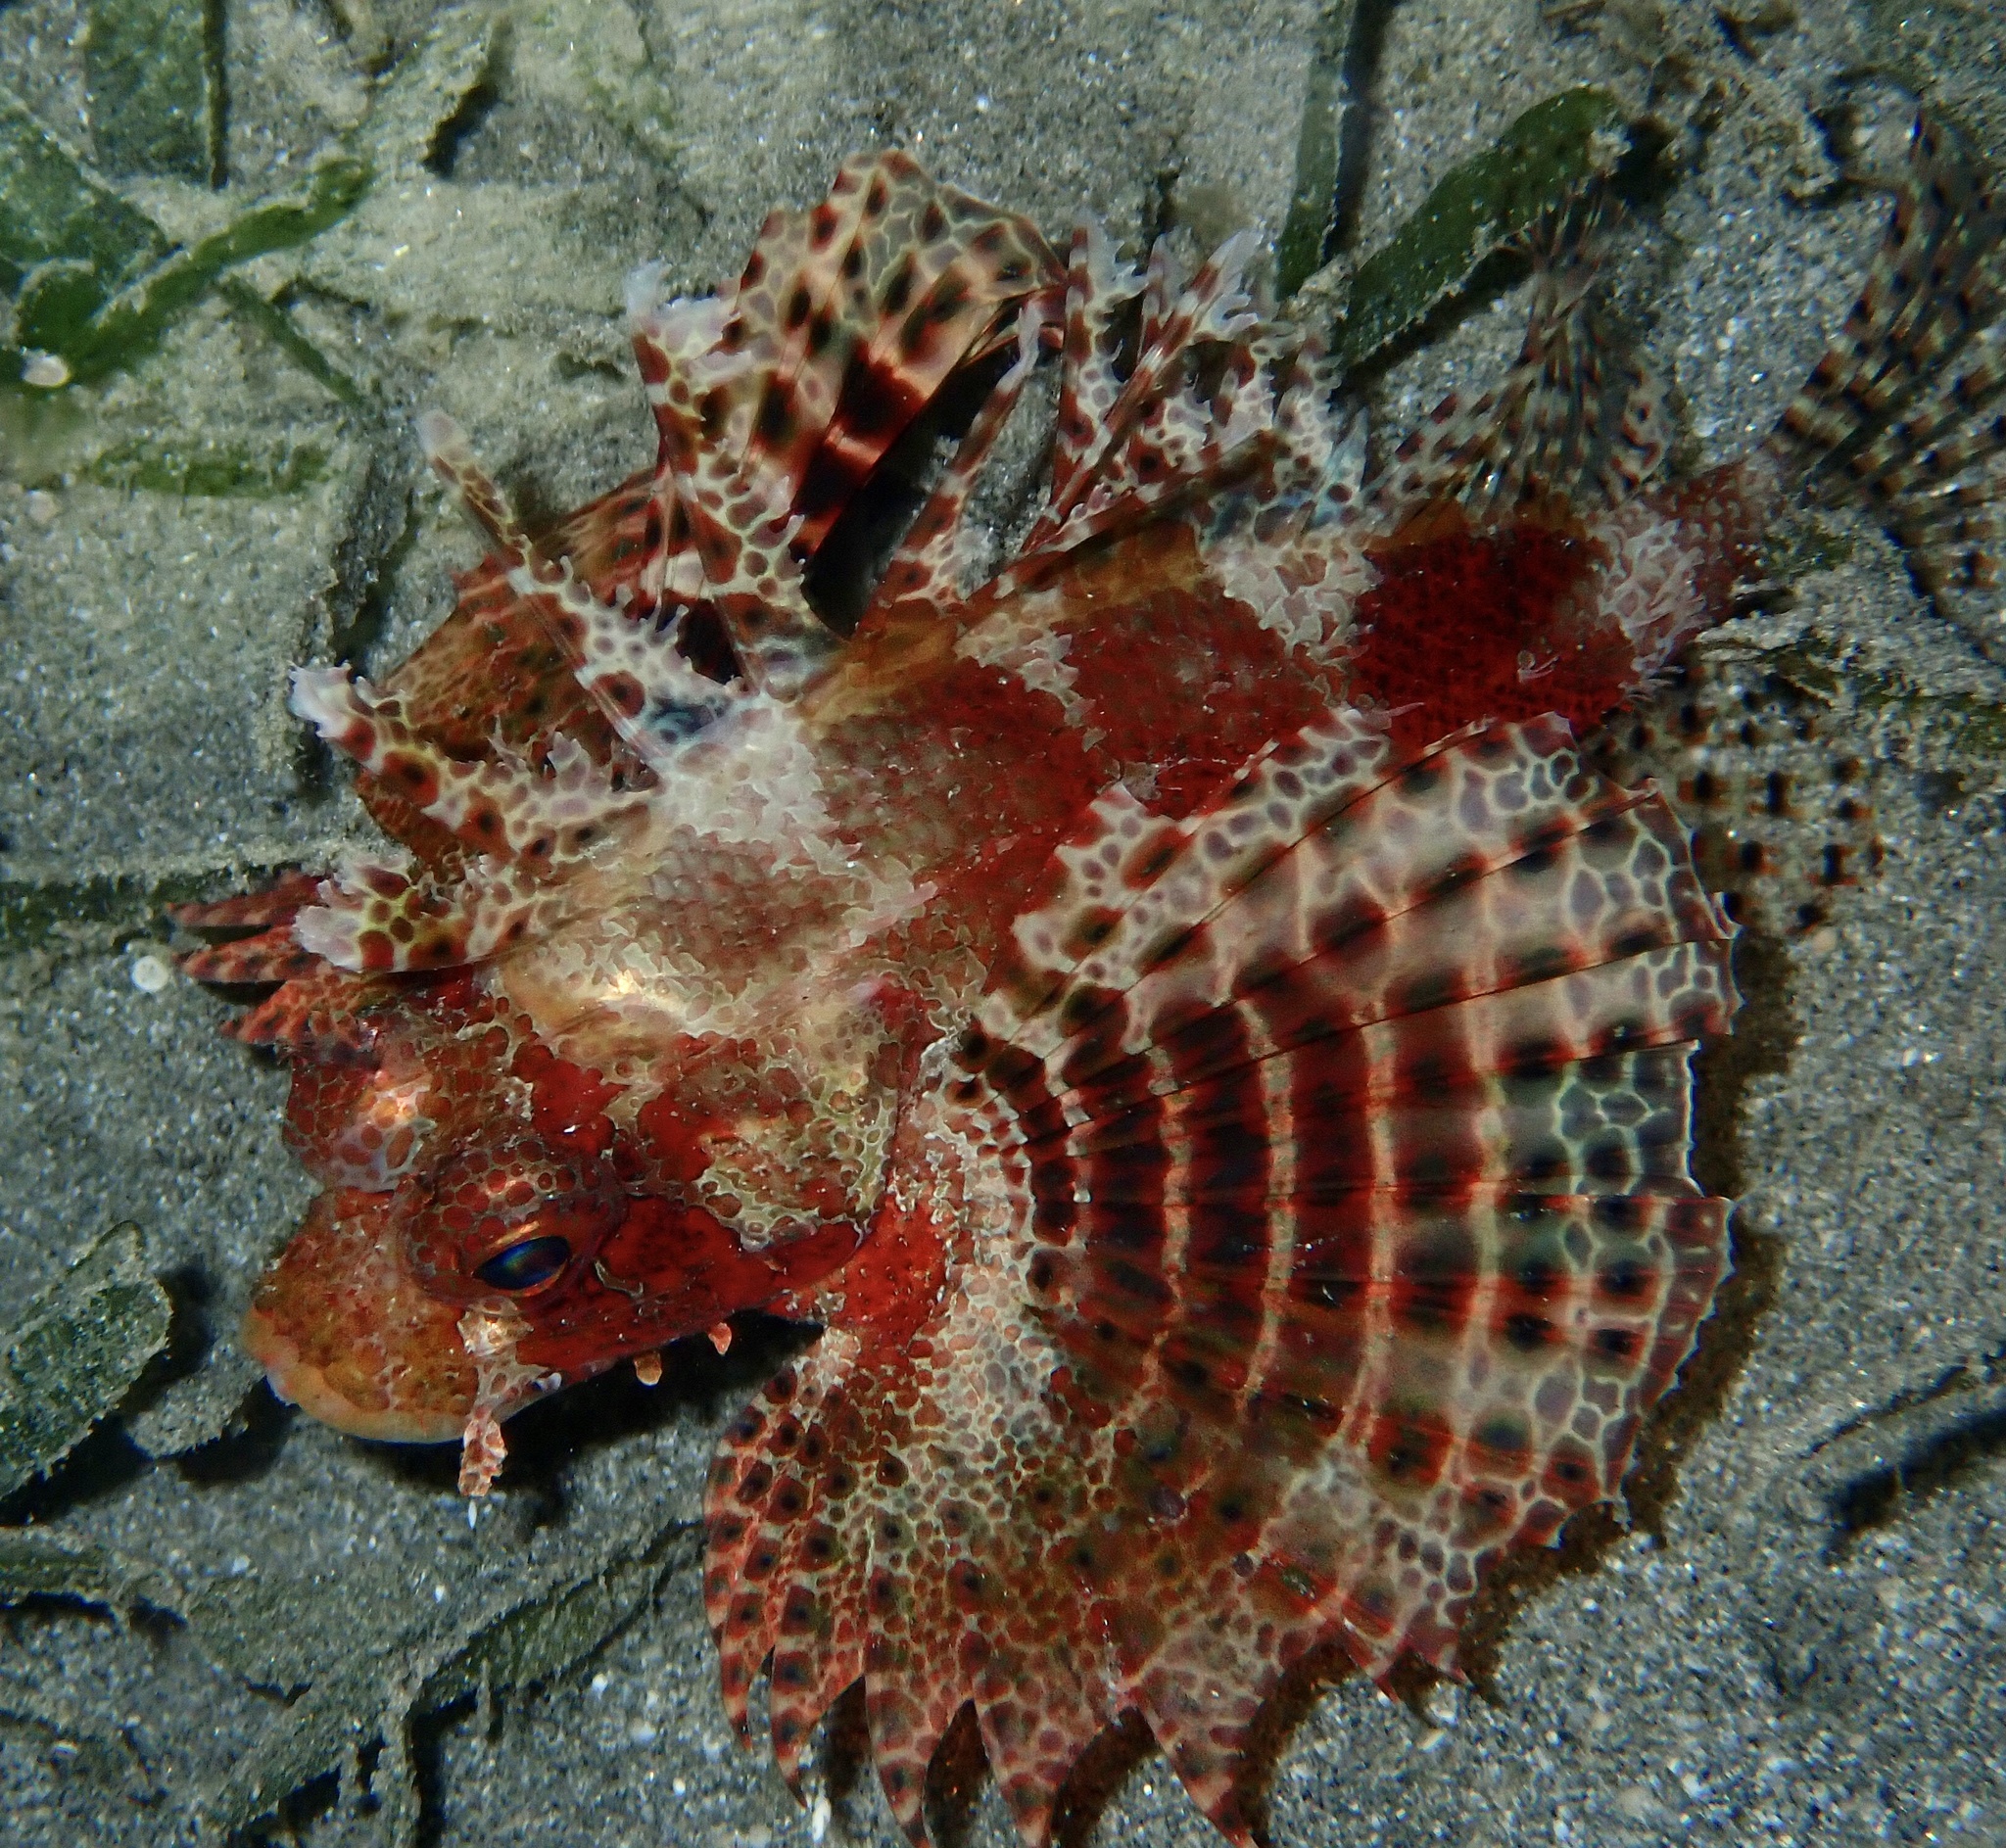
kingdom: Animalia
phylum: Chordata
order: Scorpaeniformes
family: Scorpaenidae
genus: Dendrochirus
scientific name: Dendrochirus hemprichi
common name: Red sea dwarf lionfish
